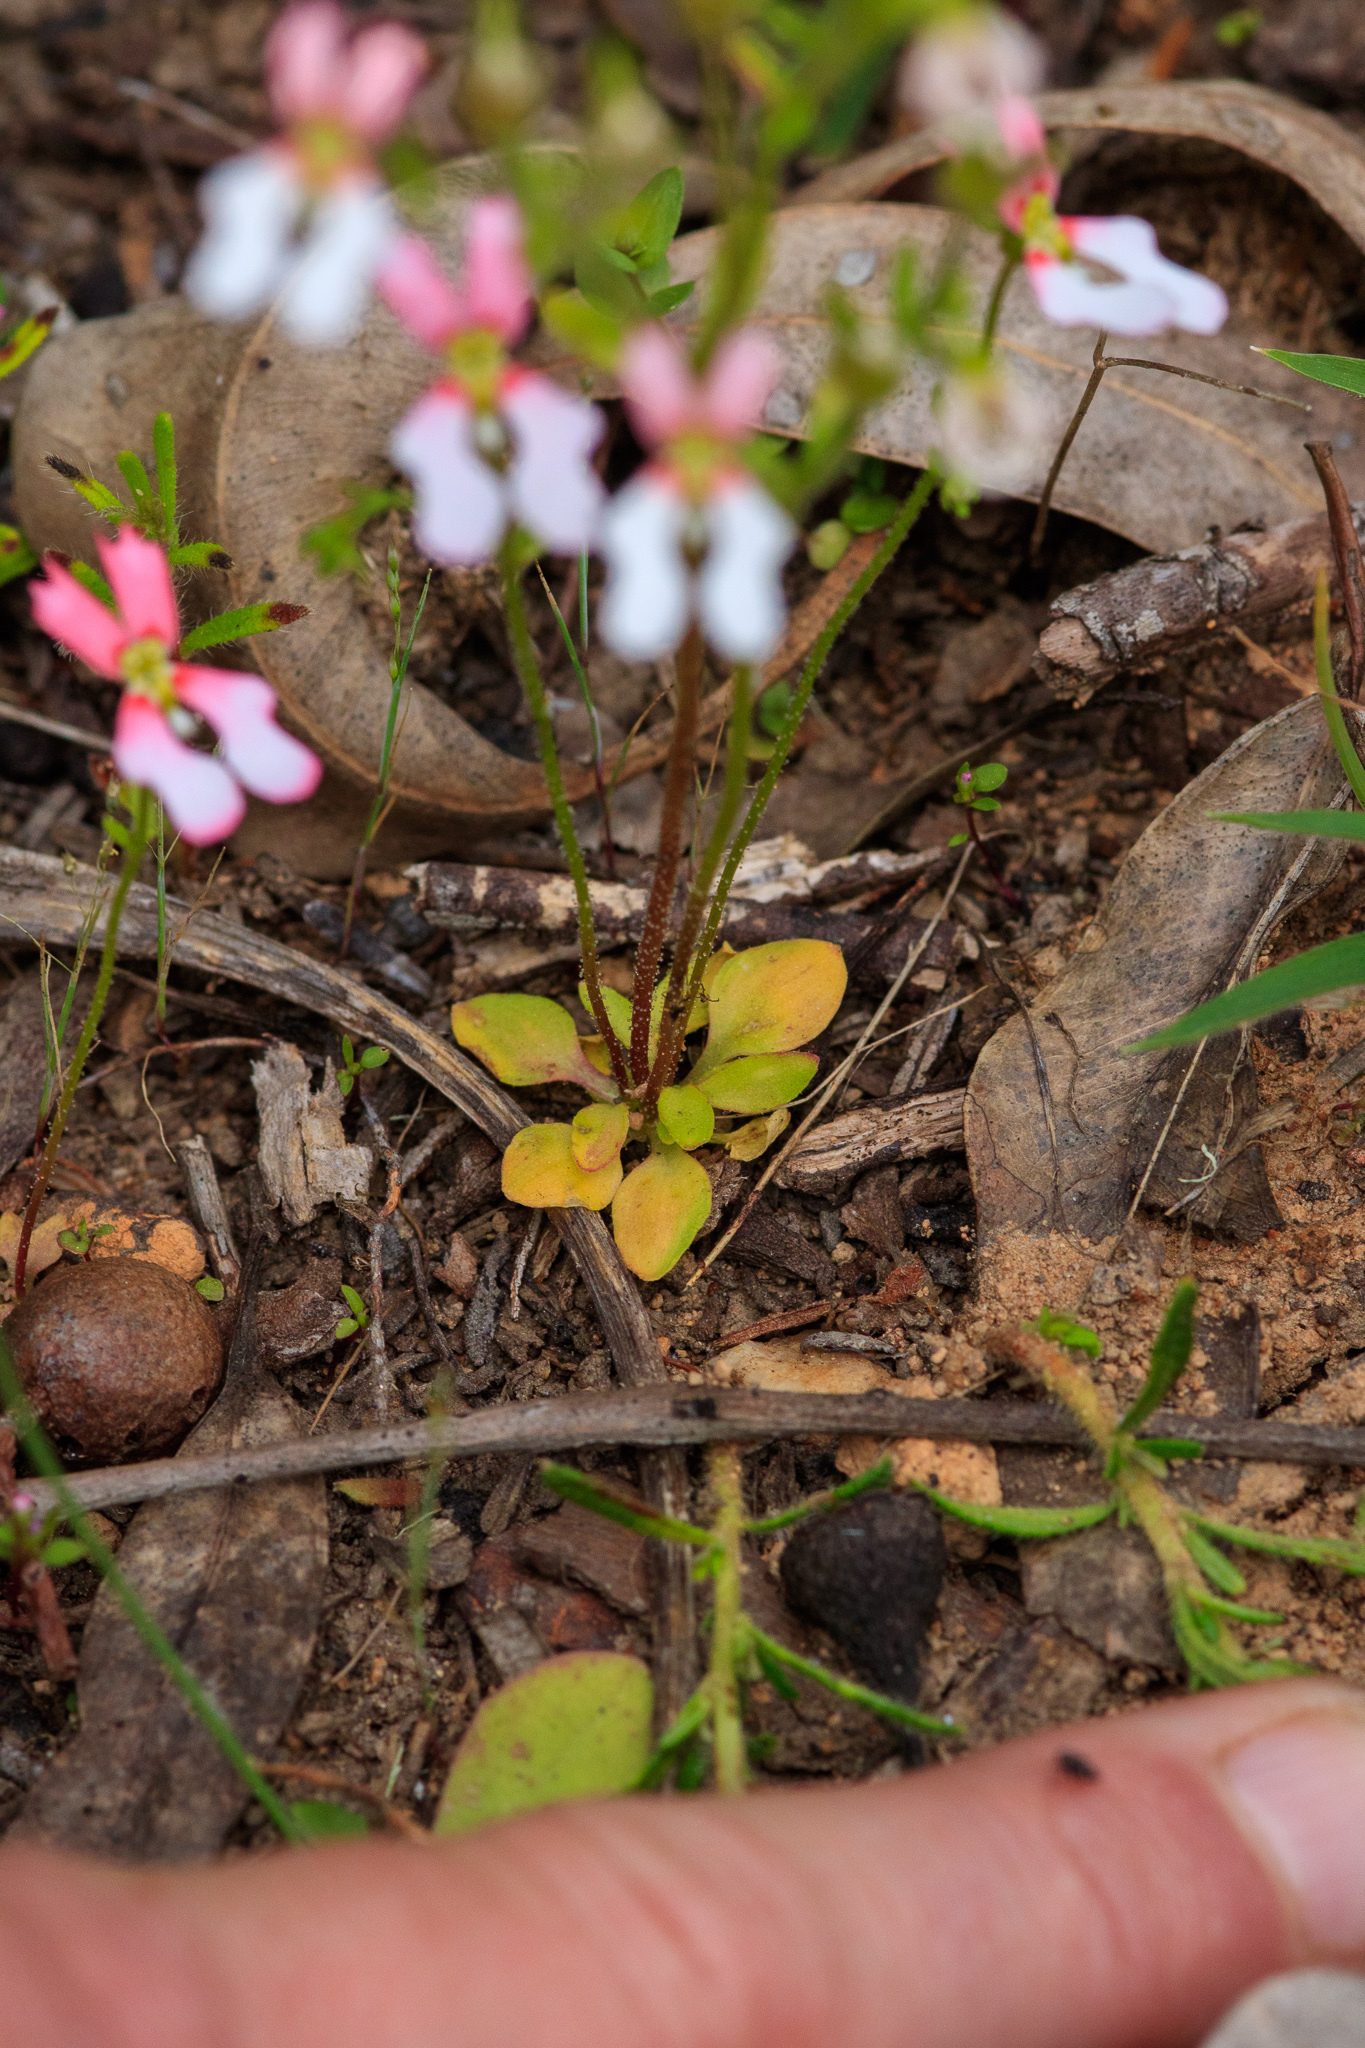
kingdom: Plantae
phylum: Tracheophyta
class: Magnoliopsida
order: Asterales
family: Stylidiaceae
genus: Stylidium
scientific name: Stylidium androsaceum
